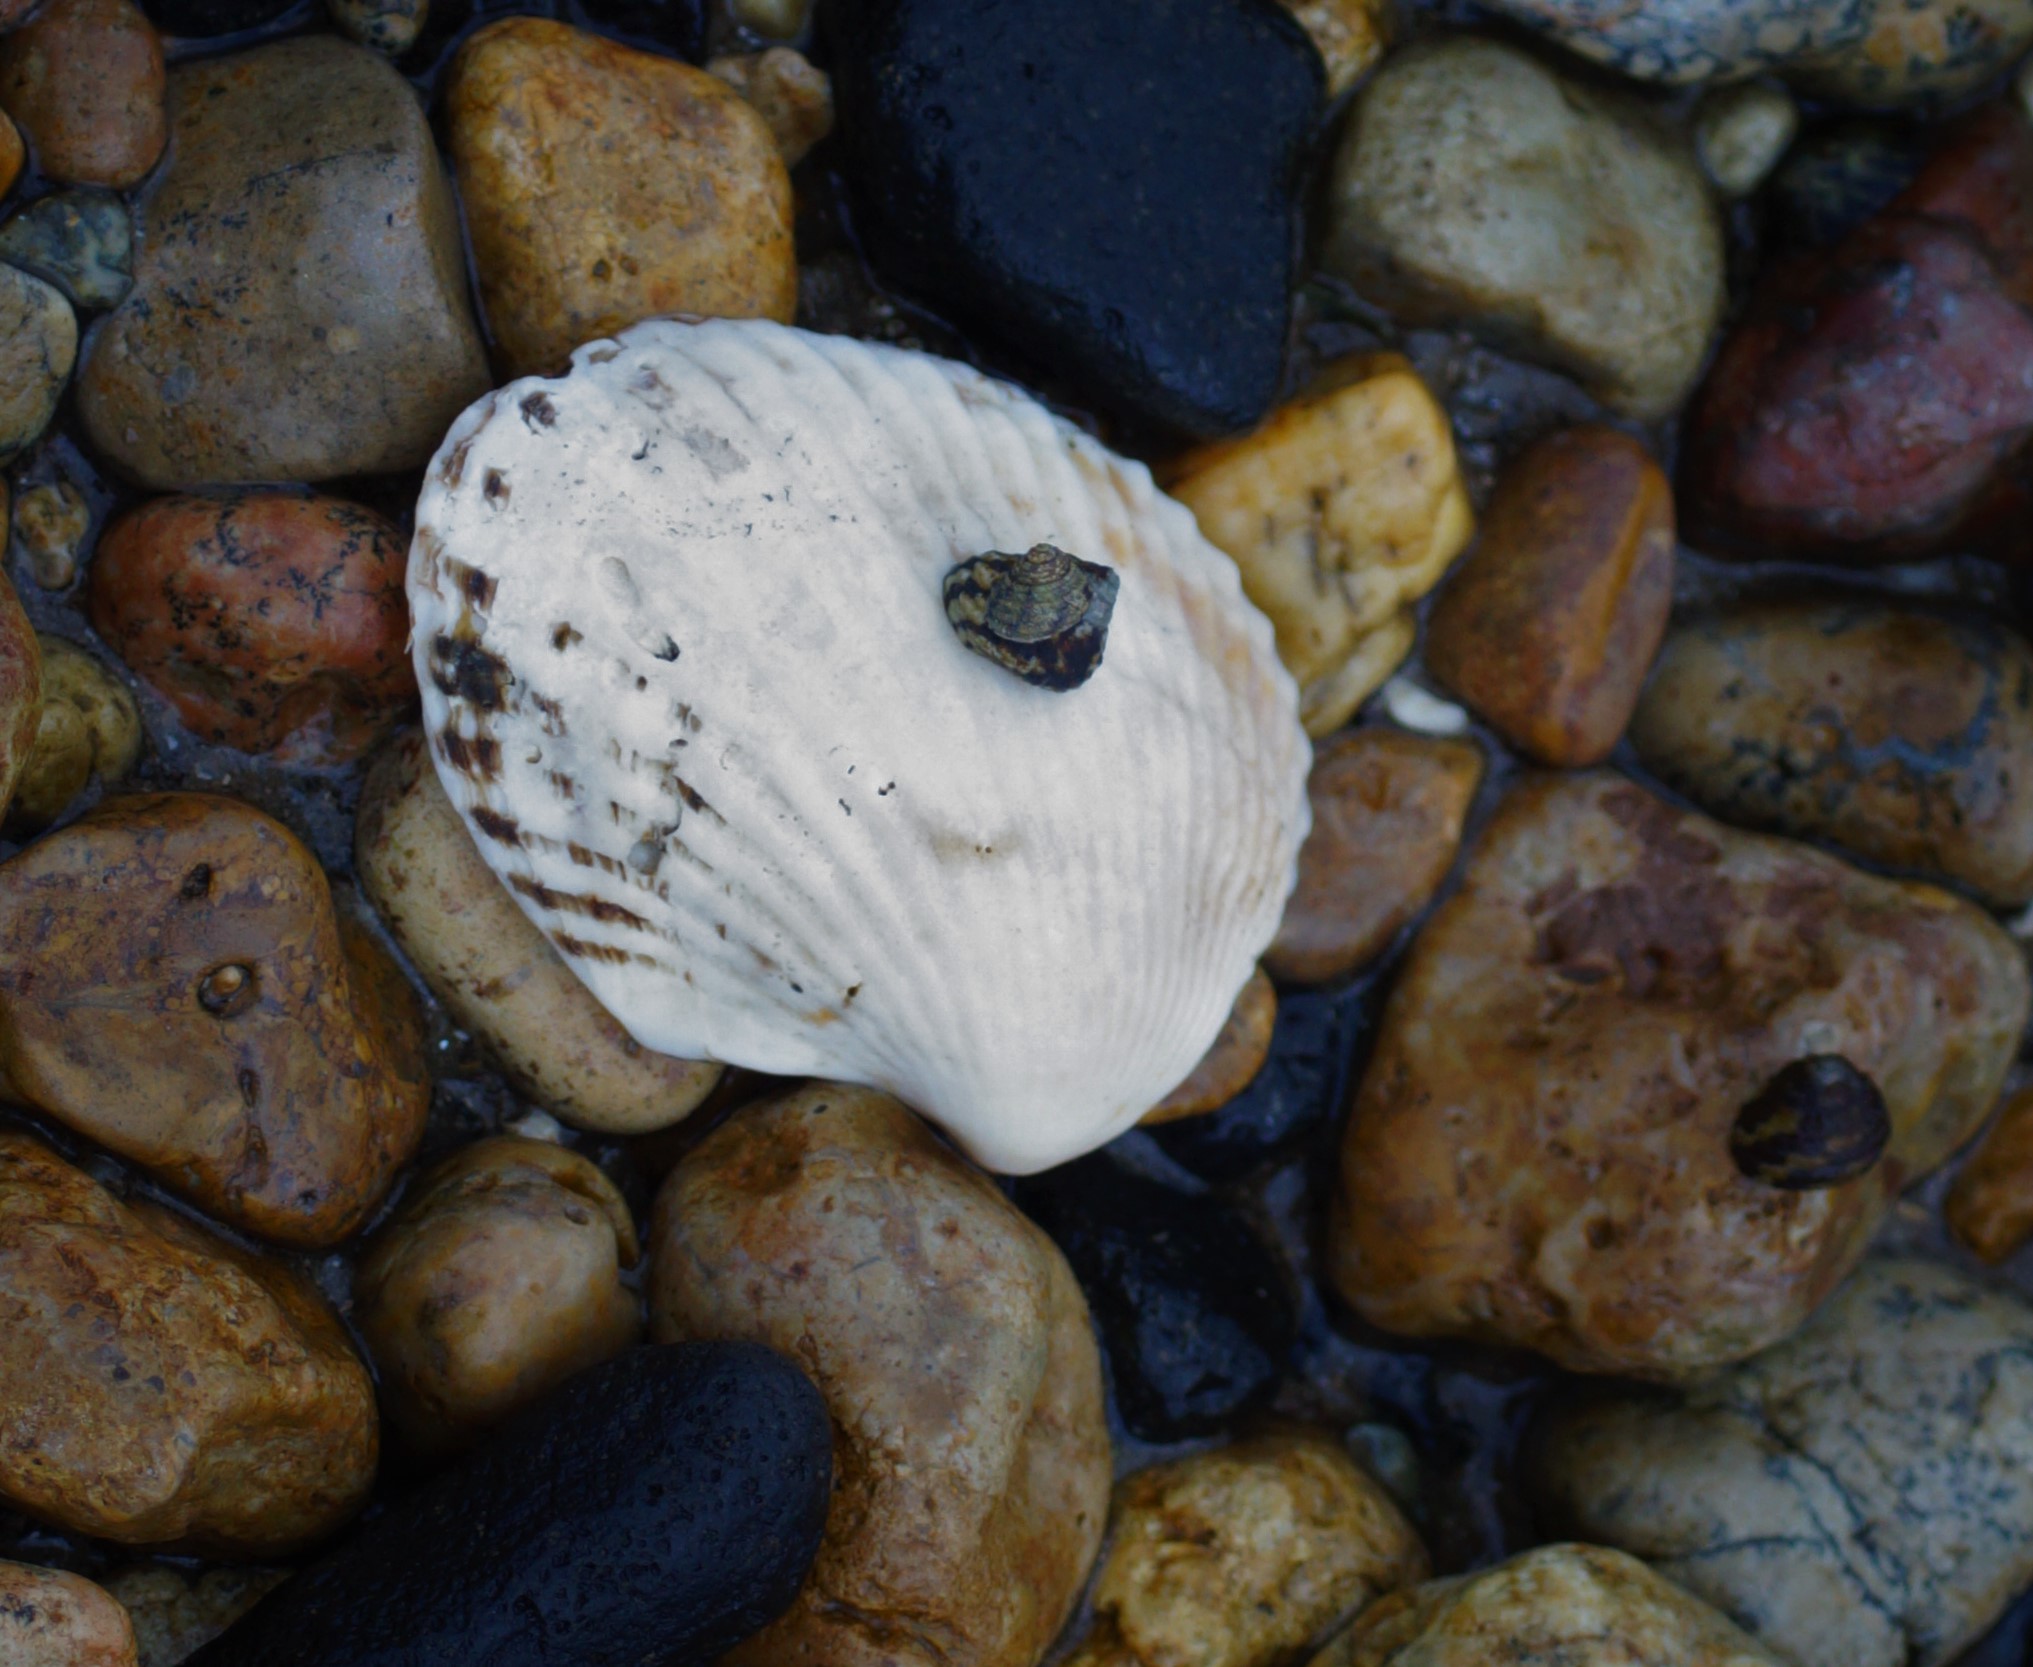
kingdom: Animalia
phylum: Mollusca
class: Bivalvia
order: Arcida
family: Arcidae
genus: Anadara
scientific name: Anadara trapezia
